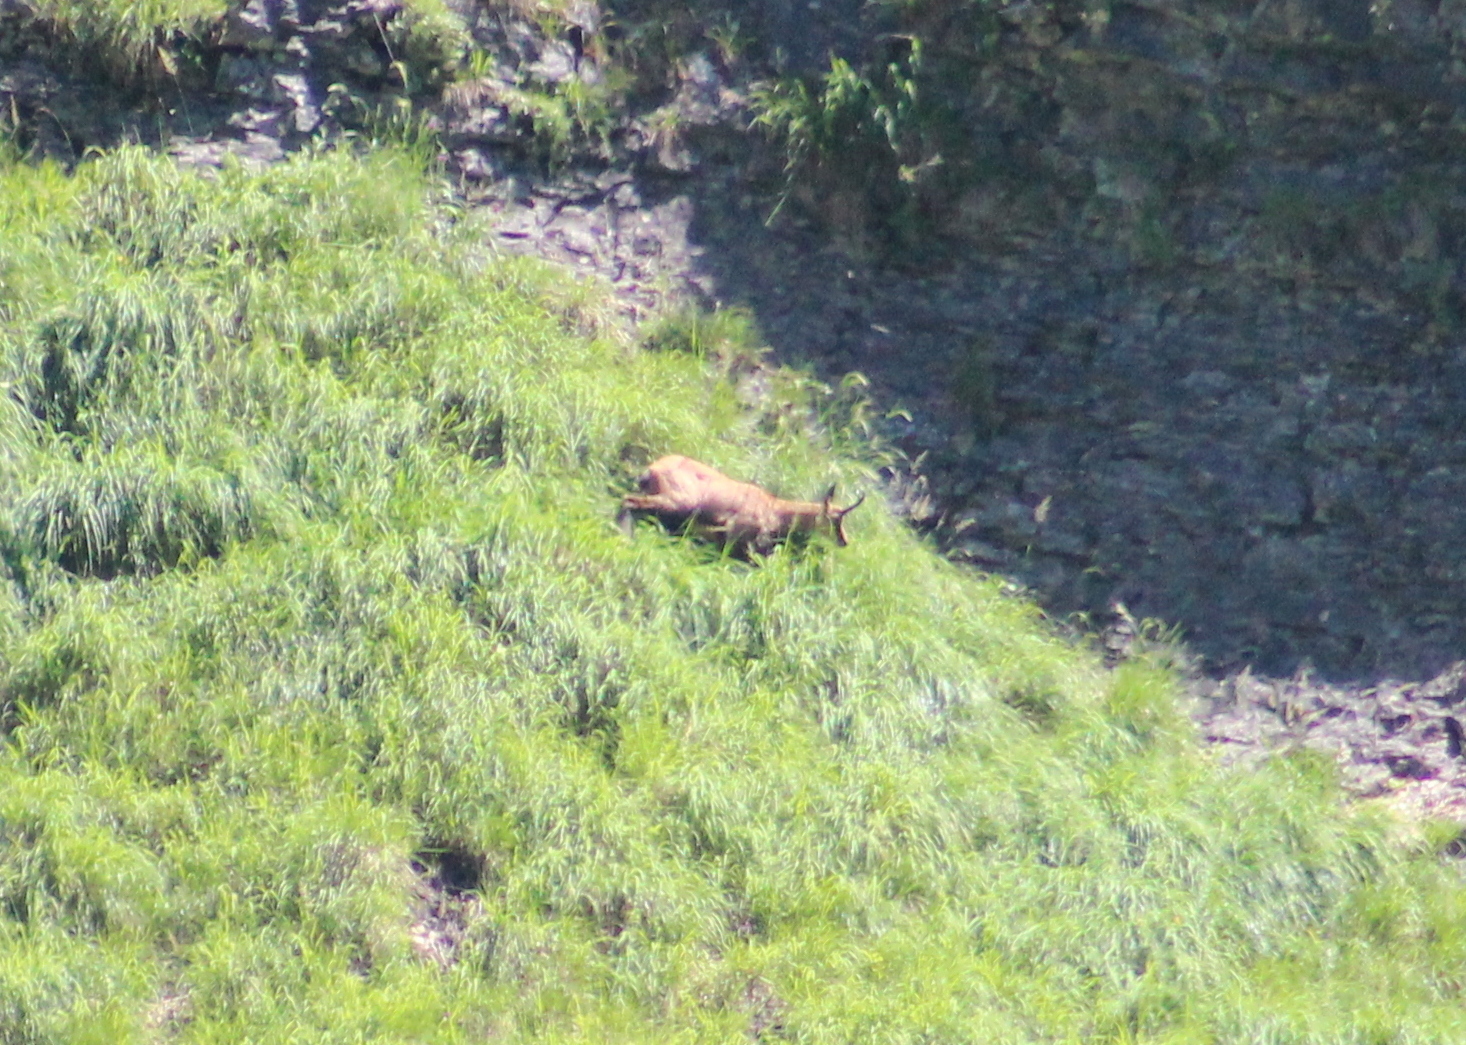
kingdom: Animalia
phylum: Chordata
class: Mammalia
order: Artiodactyla
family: Bovidae
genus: Rupicapra
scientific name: Rupicapra rupicapra
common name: Chamois
